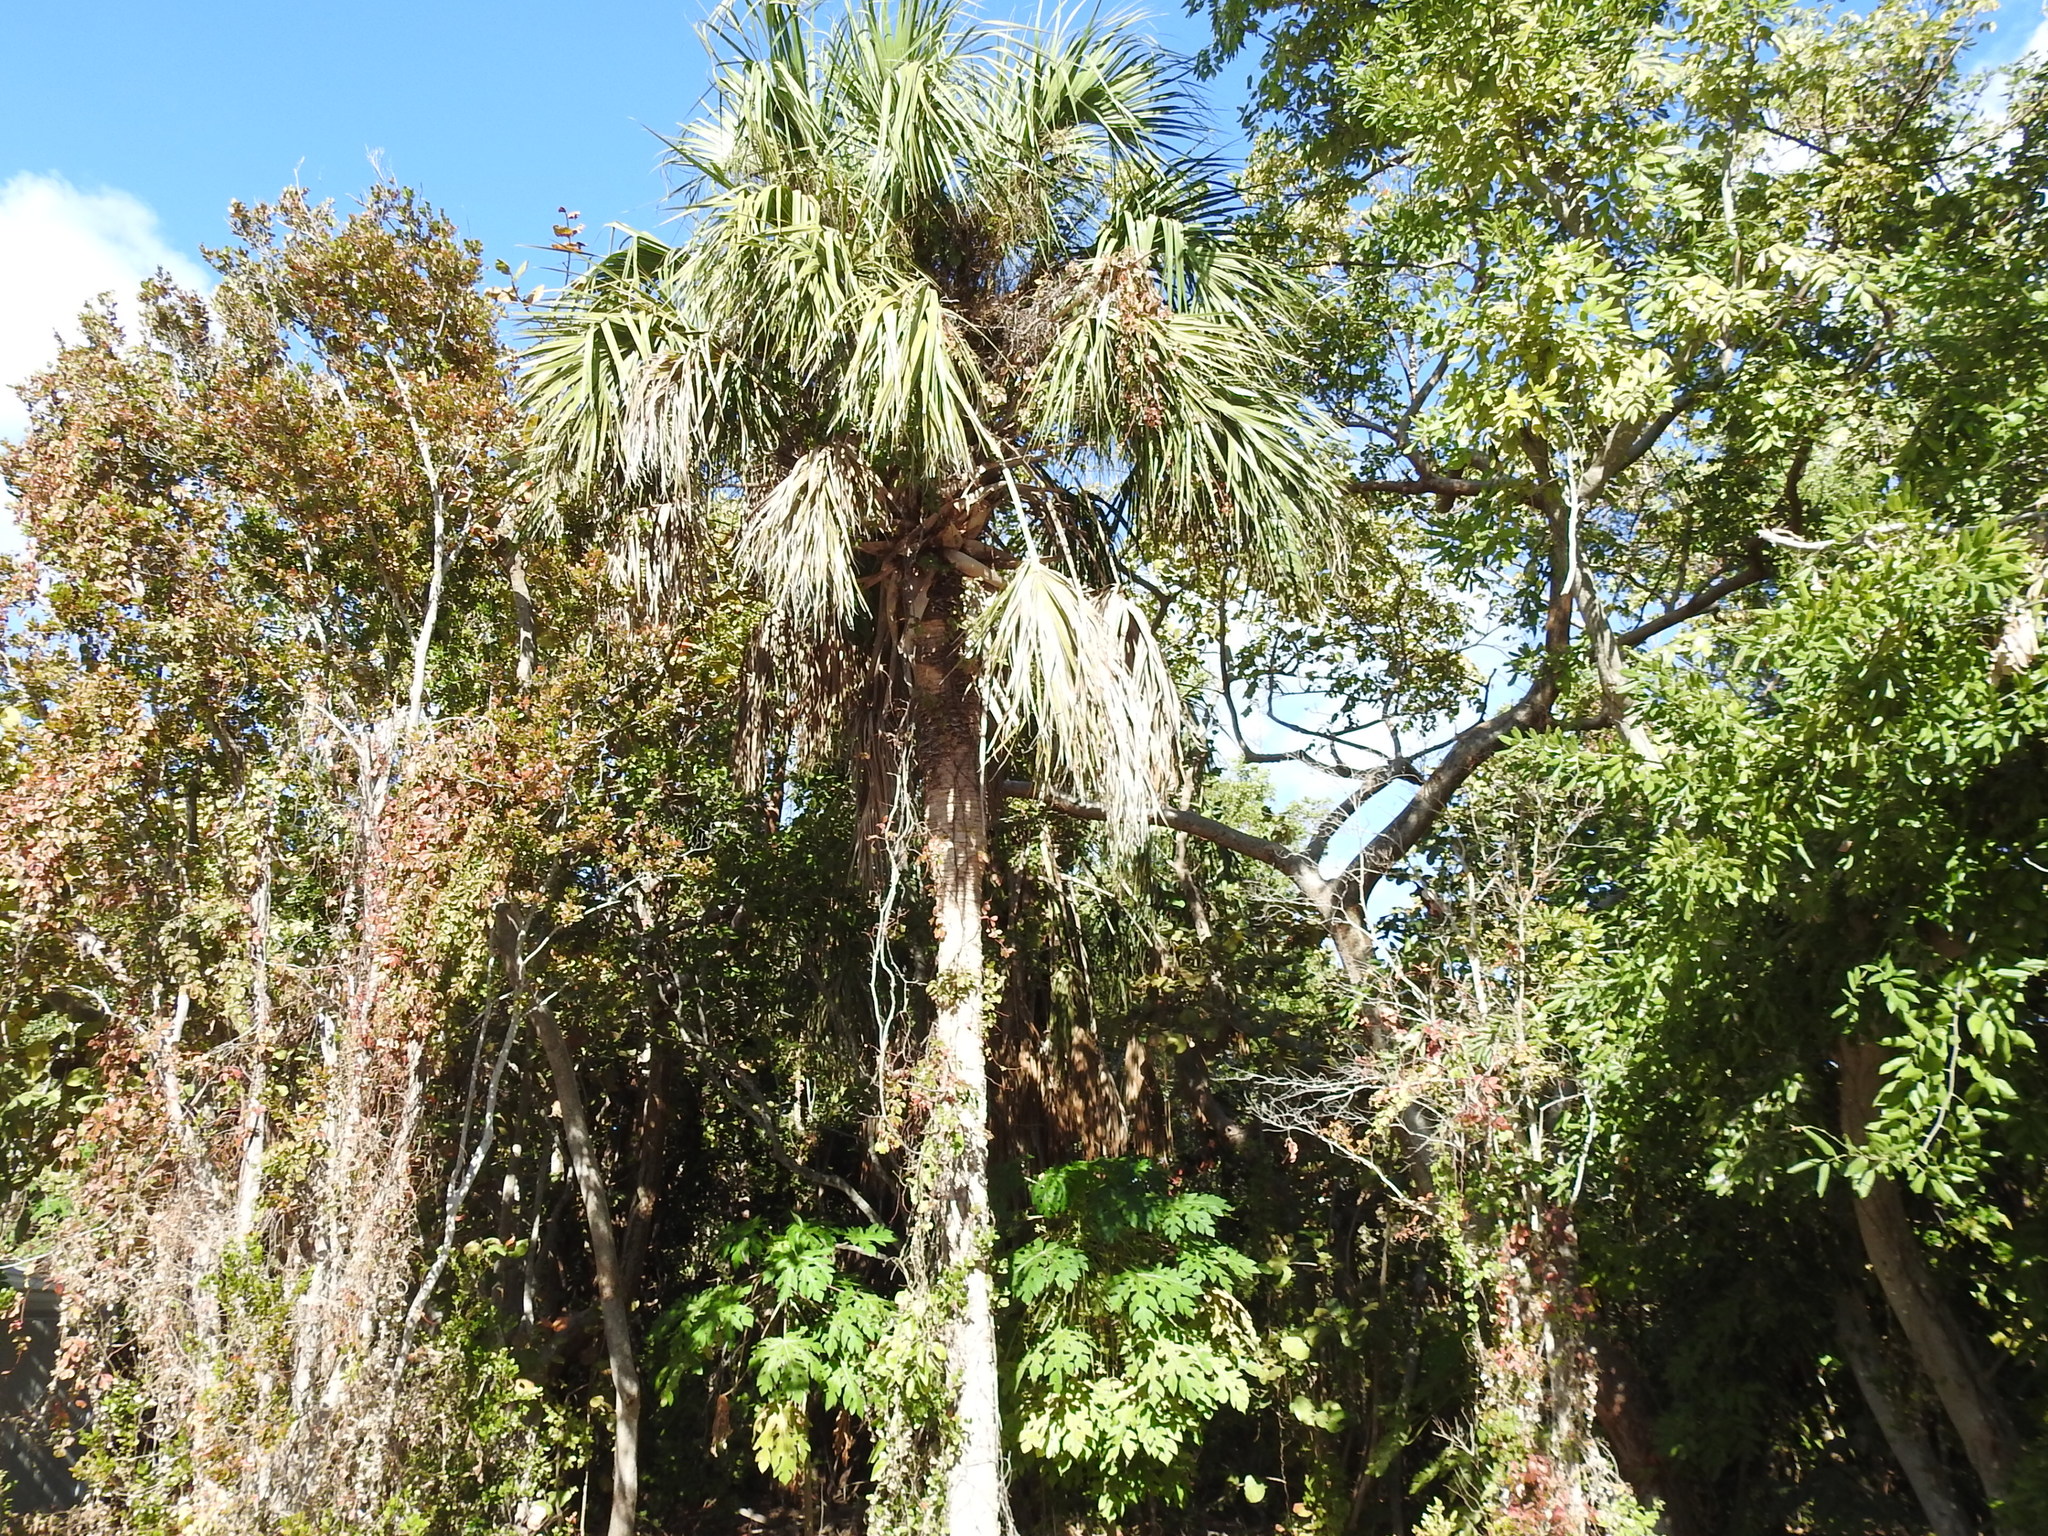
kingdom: Plantae
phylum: Tracheophyta
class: Liliopsida
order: Arecales
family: Arecaceae
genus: Cocos
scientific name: Cocos nucifera
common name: Coconut palm
